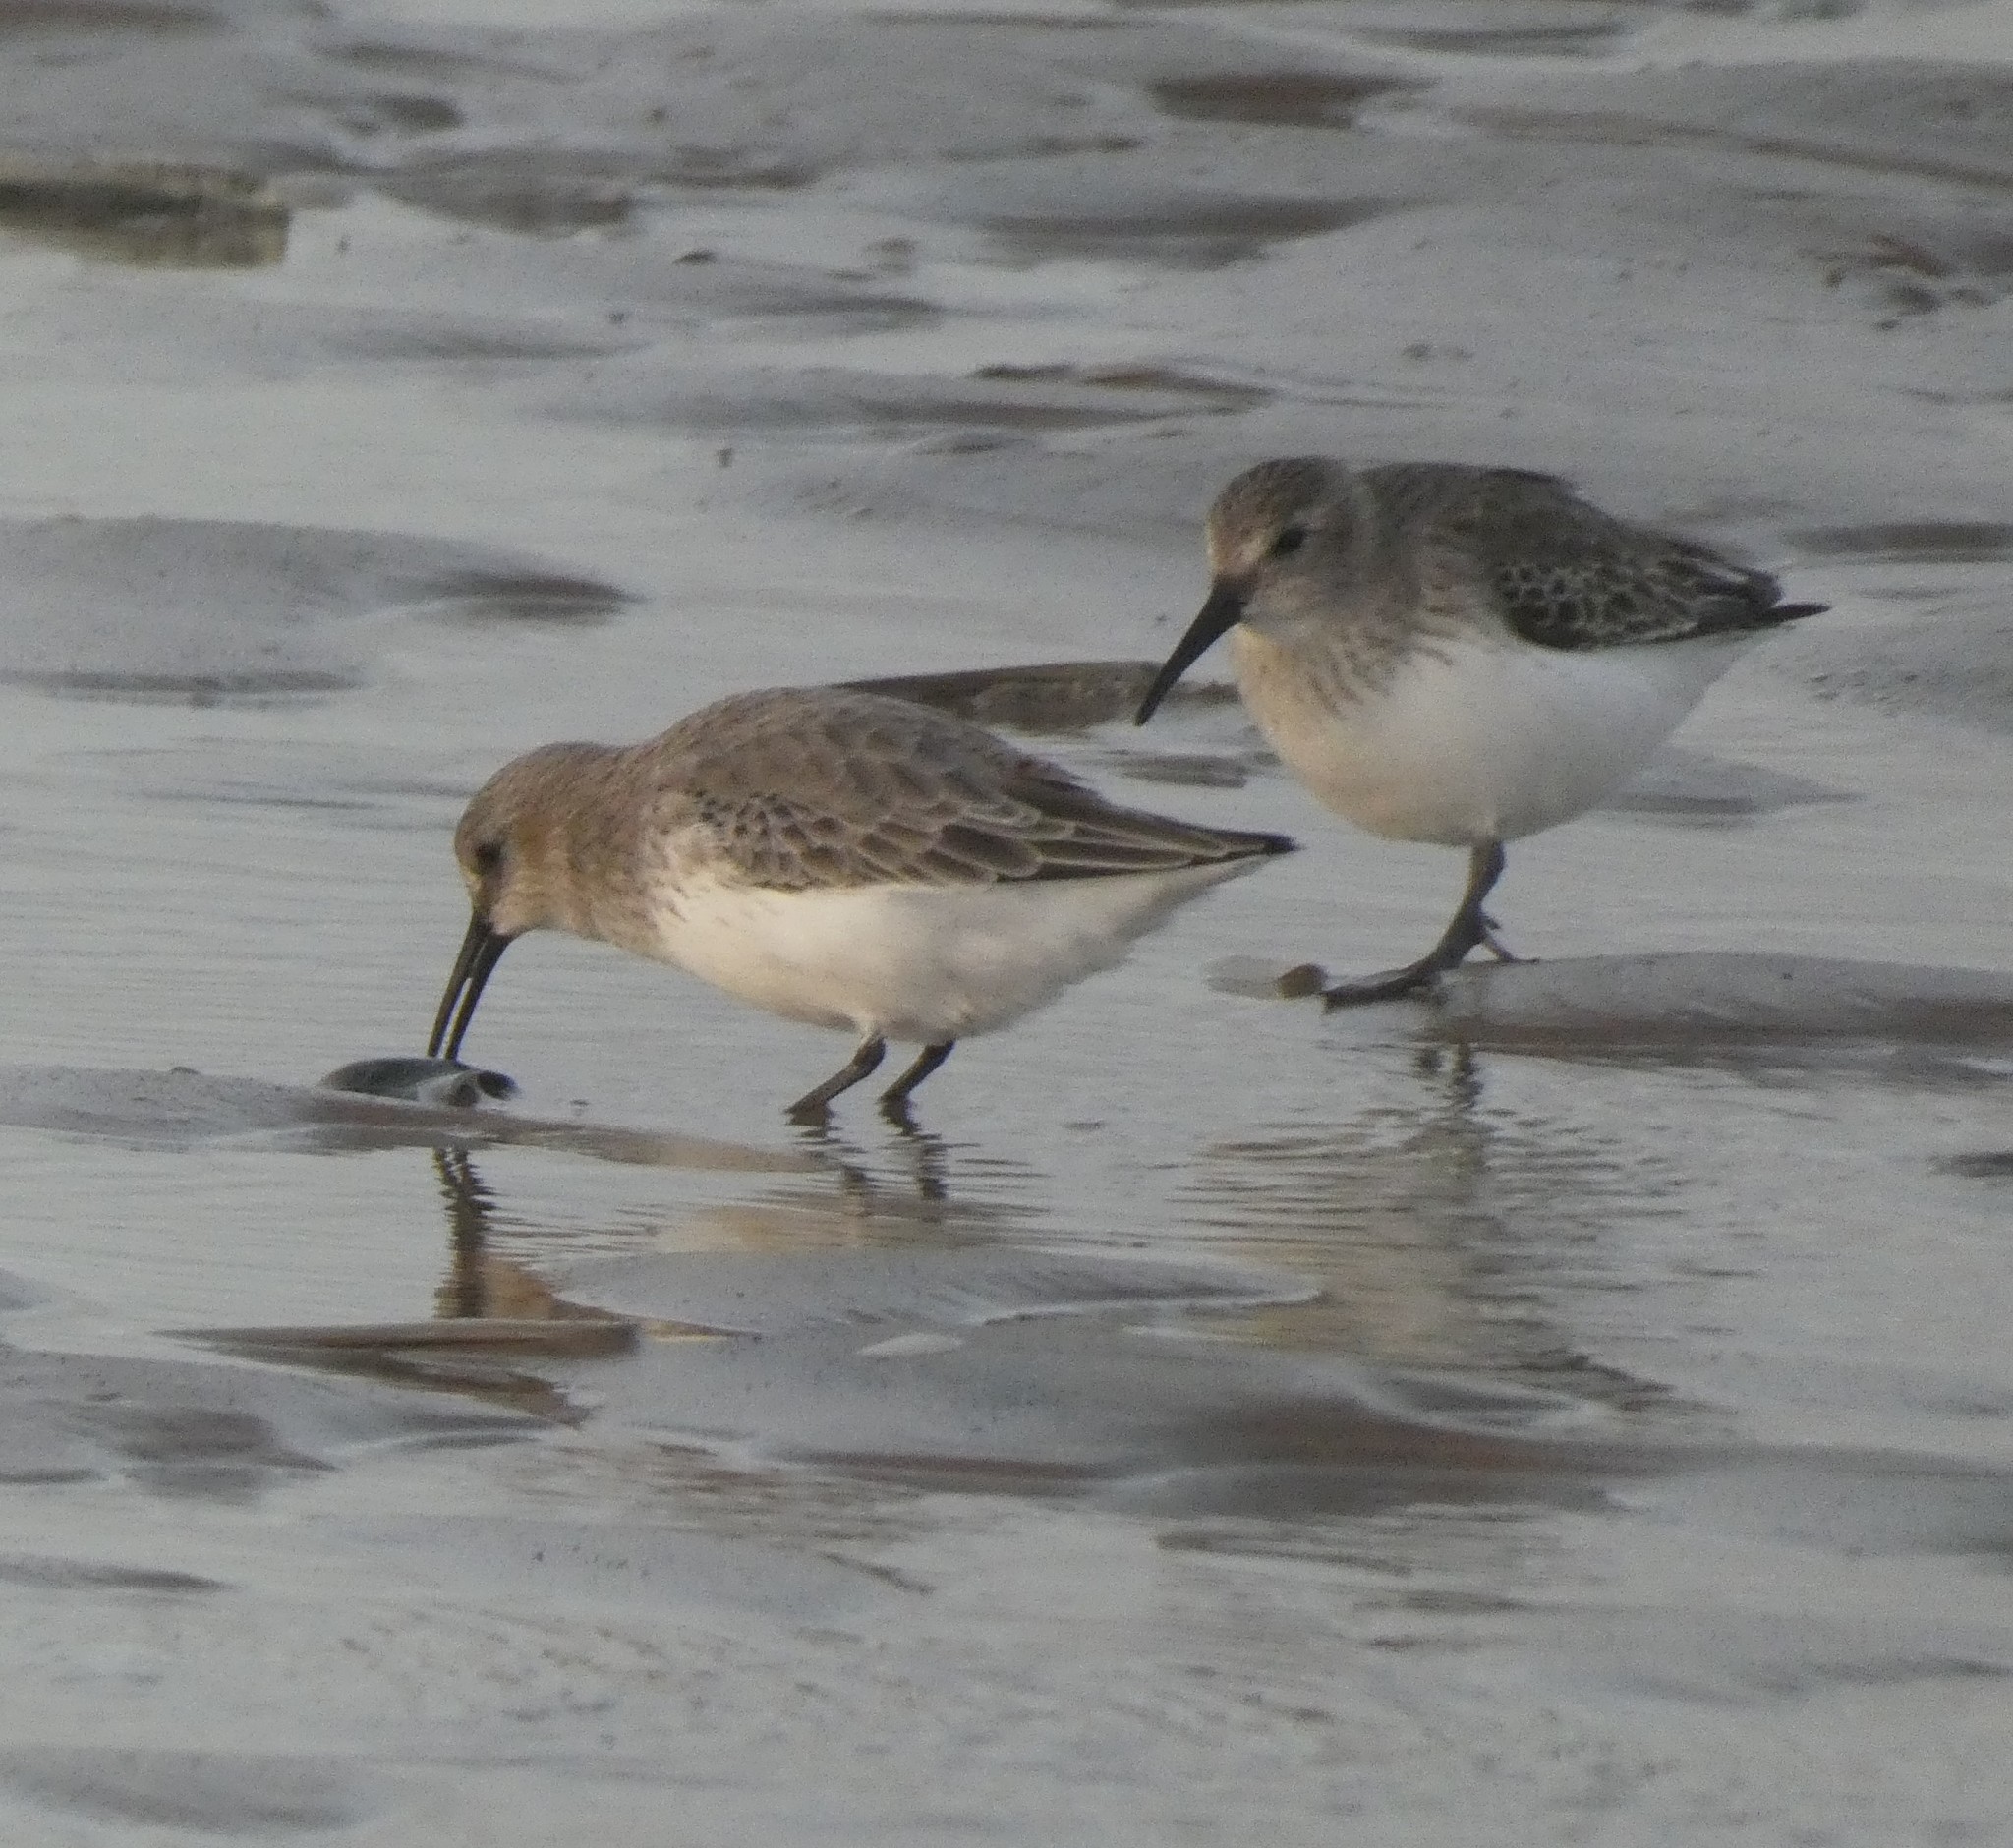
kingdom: Animalia
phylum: Chordata
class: Aves
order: Charadriiformes
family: Scolopacidae
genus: Calidris
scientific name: Calidris alpina
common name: Dunlin
